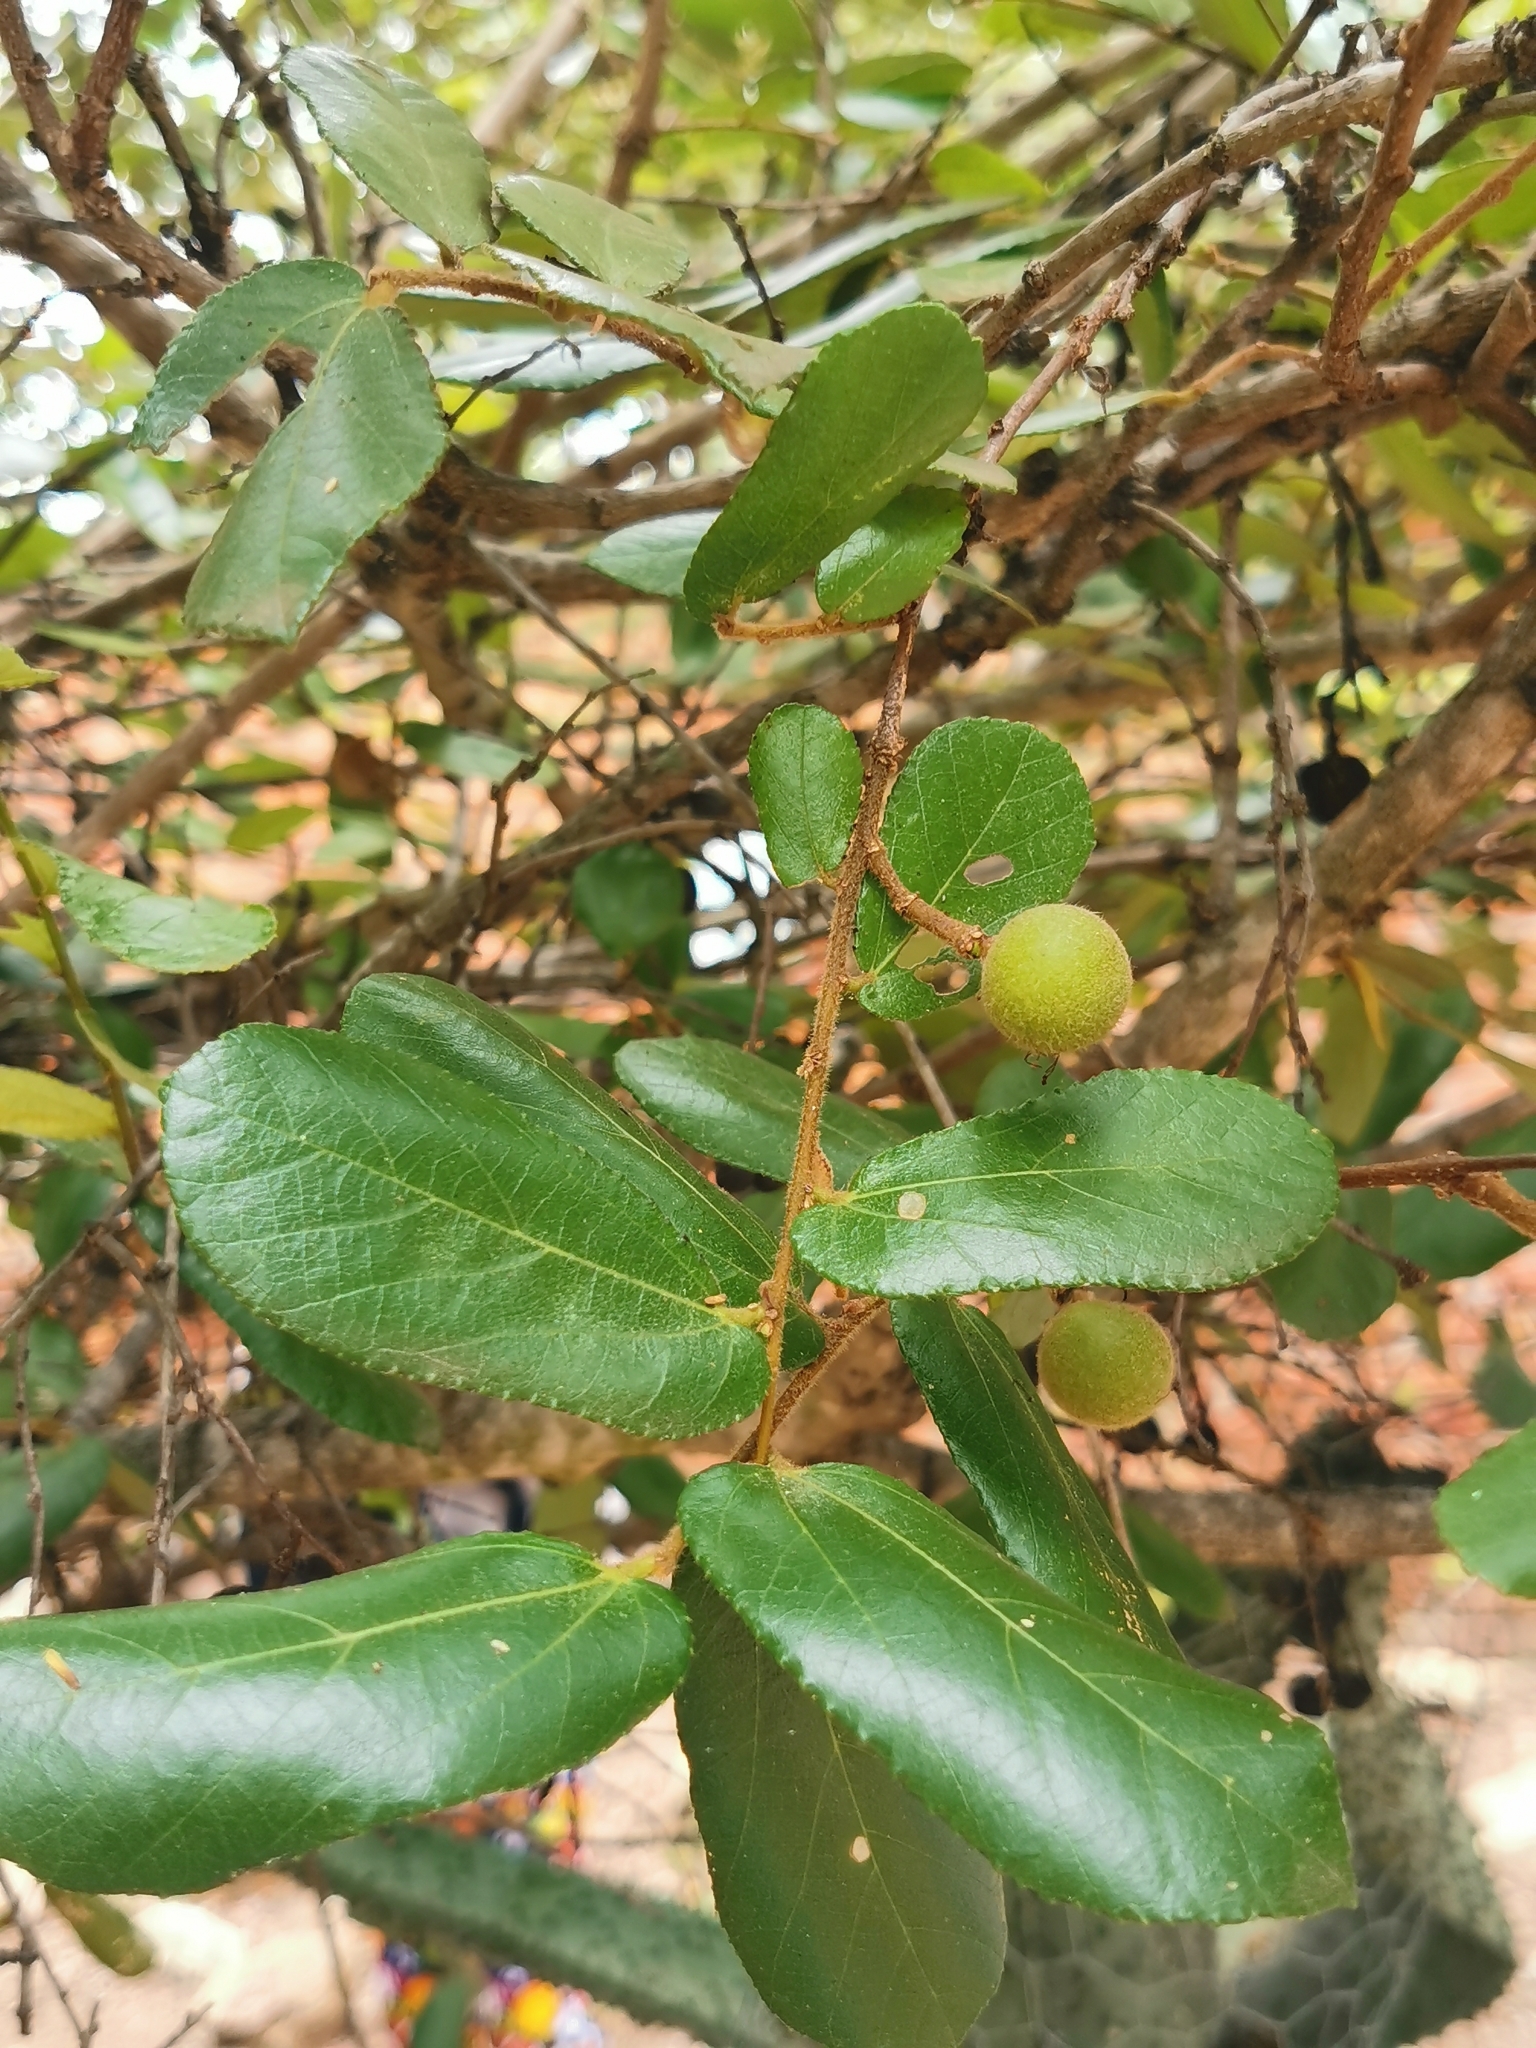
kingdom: Plantae
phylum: Tracheophyta
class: Magnoliopsida
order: Malvales
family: Malvaceae
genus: Grewia
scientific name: Grewia hexamita
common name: Giant raisin
